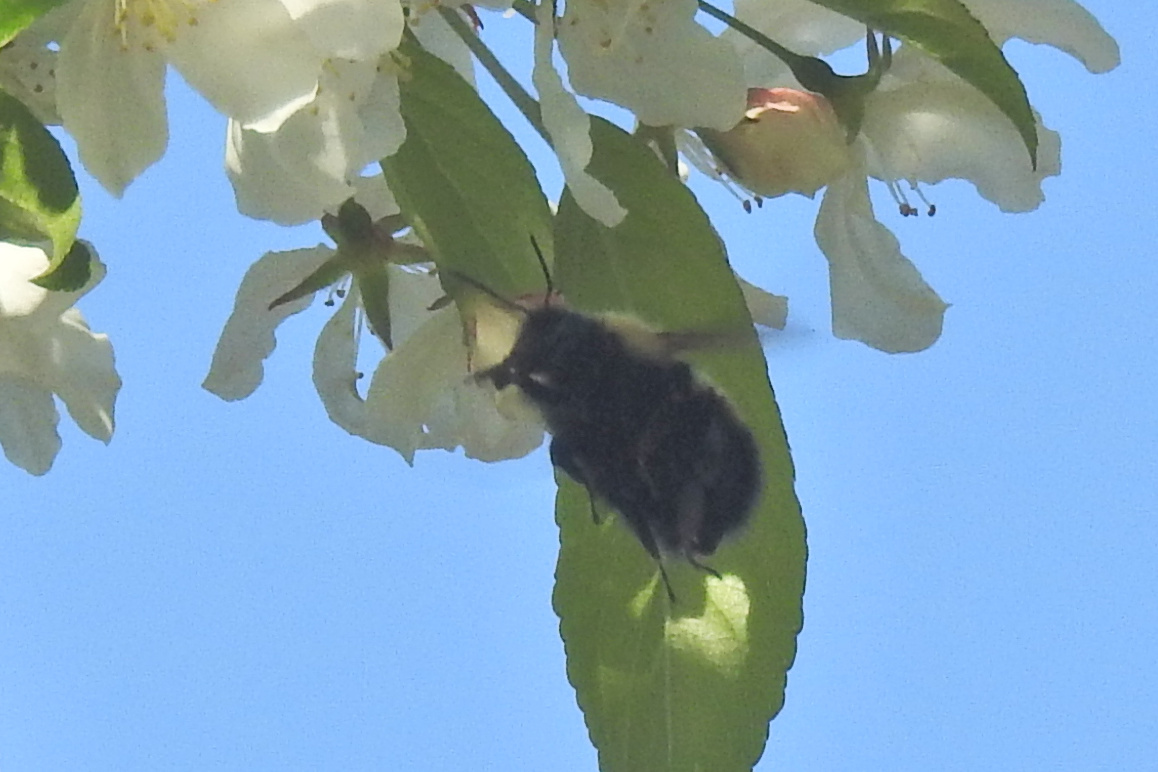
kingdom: Animalia
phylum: Arthropoda
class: Insecta
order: Hymenoptera
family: Apidae
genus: Bombus
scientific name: Bombus
